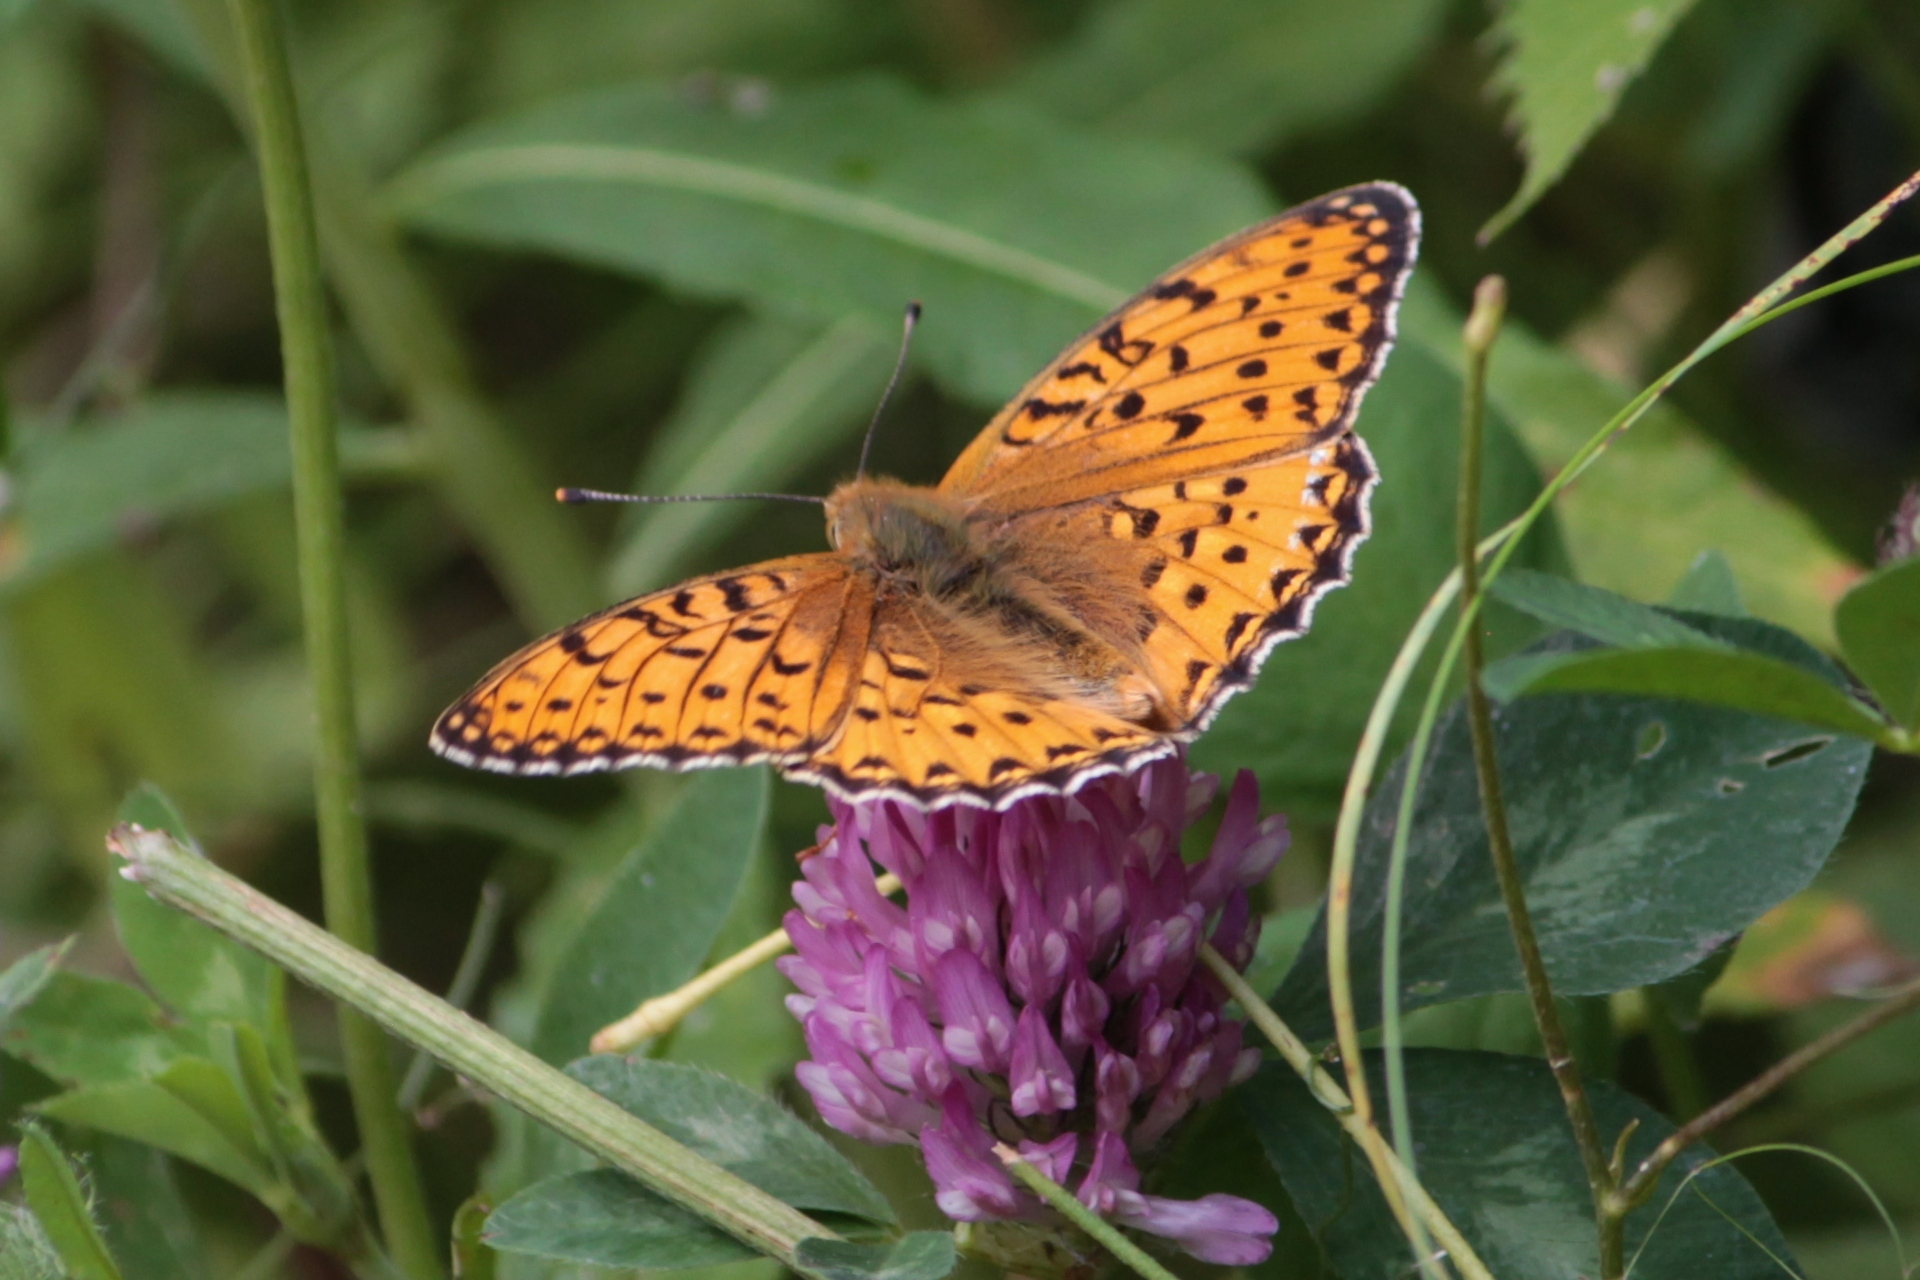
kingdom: Animalia
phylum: Arthropoda
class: Insecta
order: Lepidoptera
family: Nymphalidae
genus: Speyeria
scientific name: Speyeria aglaja
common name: Dark green fritillary
